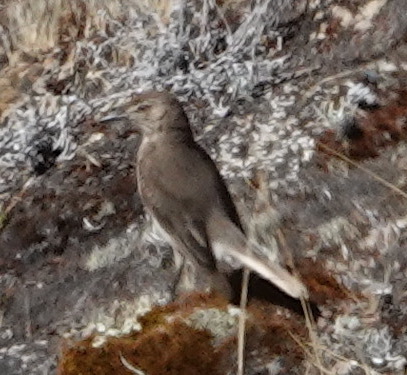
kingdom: Animalia
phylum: Chordata
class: Aves
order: Passeriformes
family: Tyrannidae
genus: Agriornis
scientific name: Agriornis montanus
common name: Black-billed shrike-tyrant
